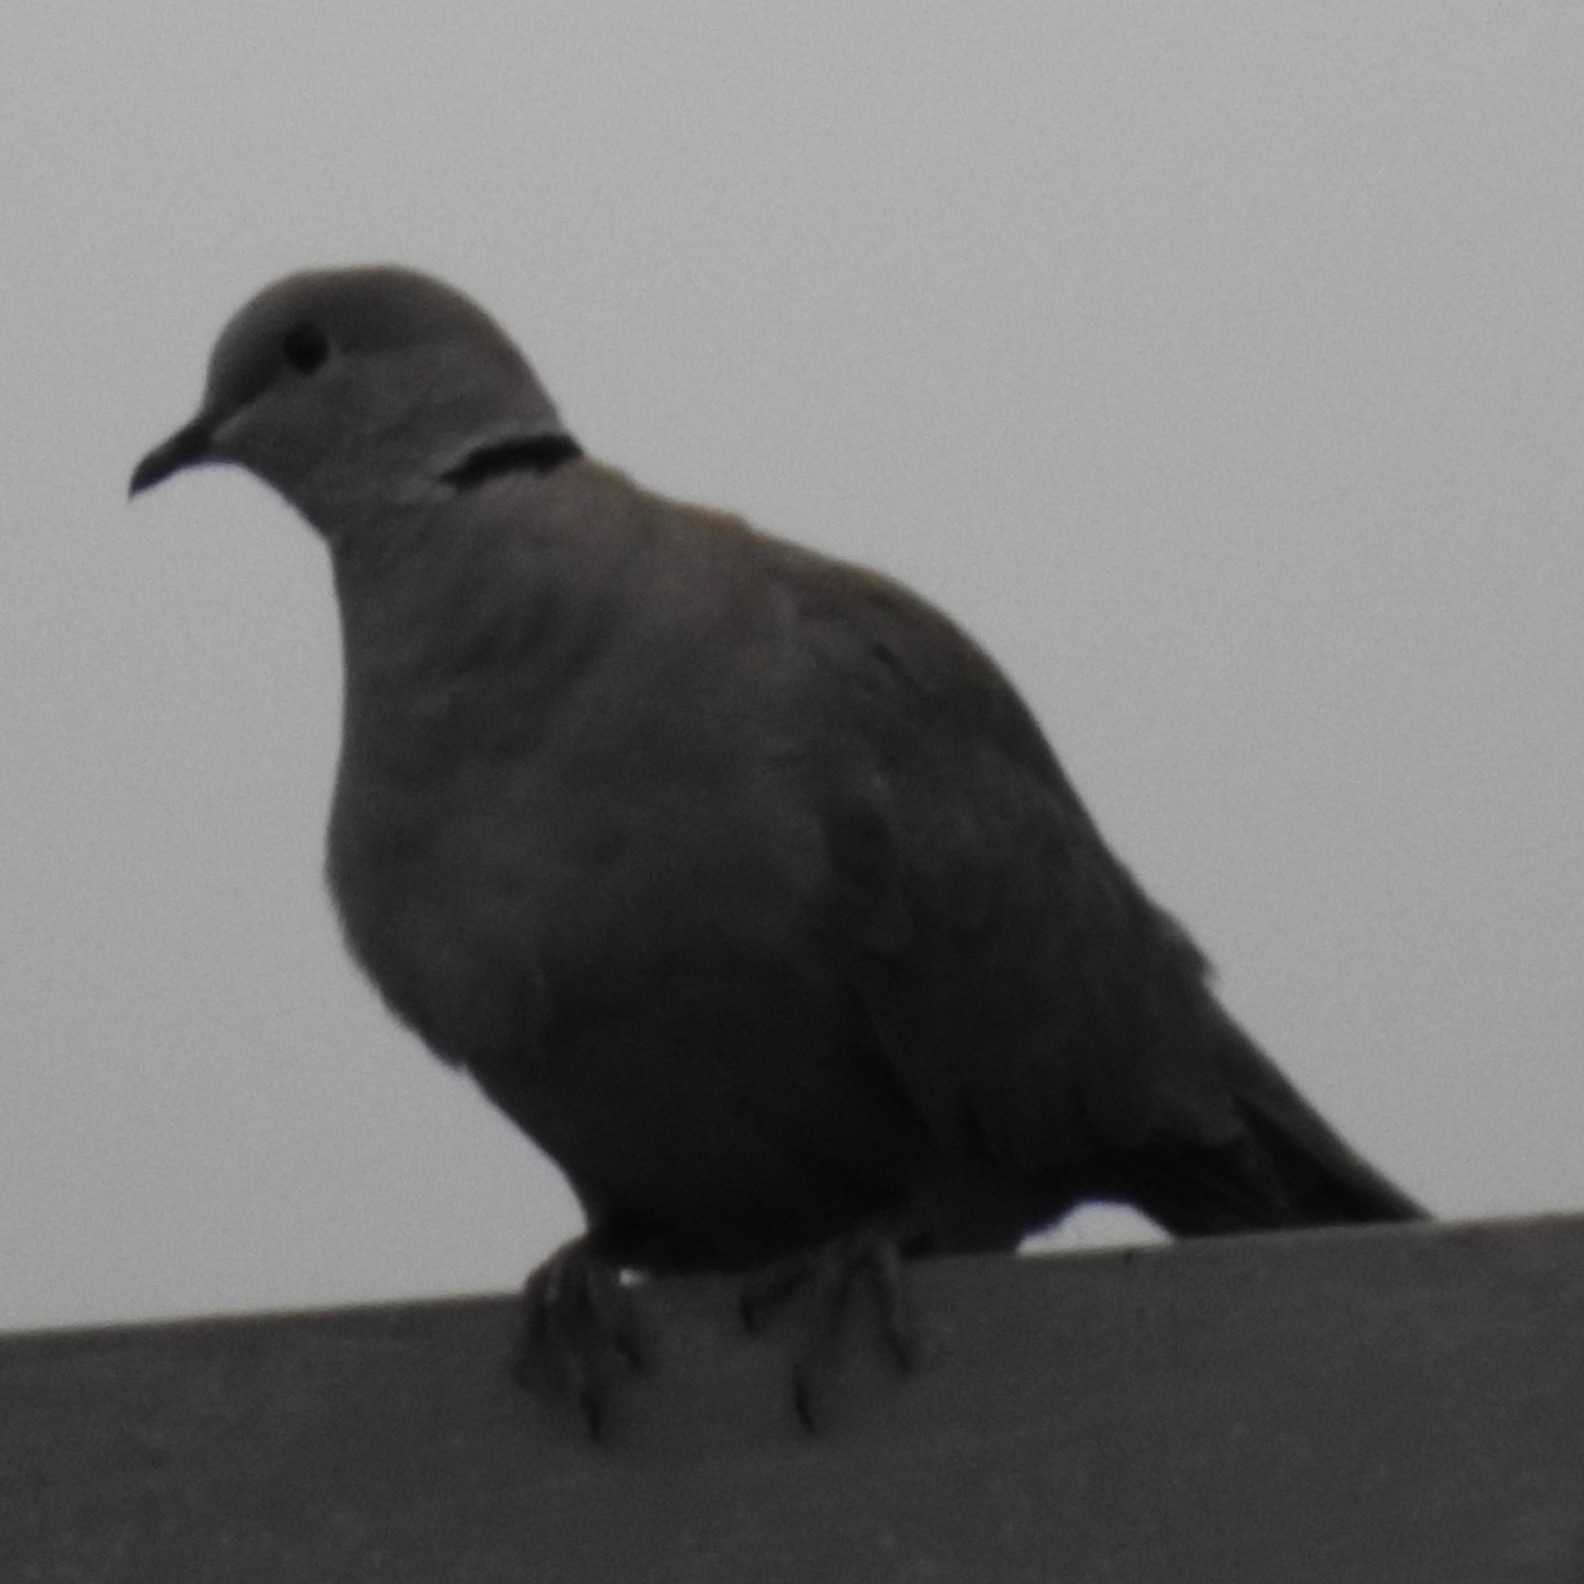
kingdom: Animalia
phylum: Chordata
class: Aves
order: Columbiformes
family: Columbidae
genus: Streptopelia
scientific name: Streptopelia decaocto
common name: Eurasian collared dove
